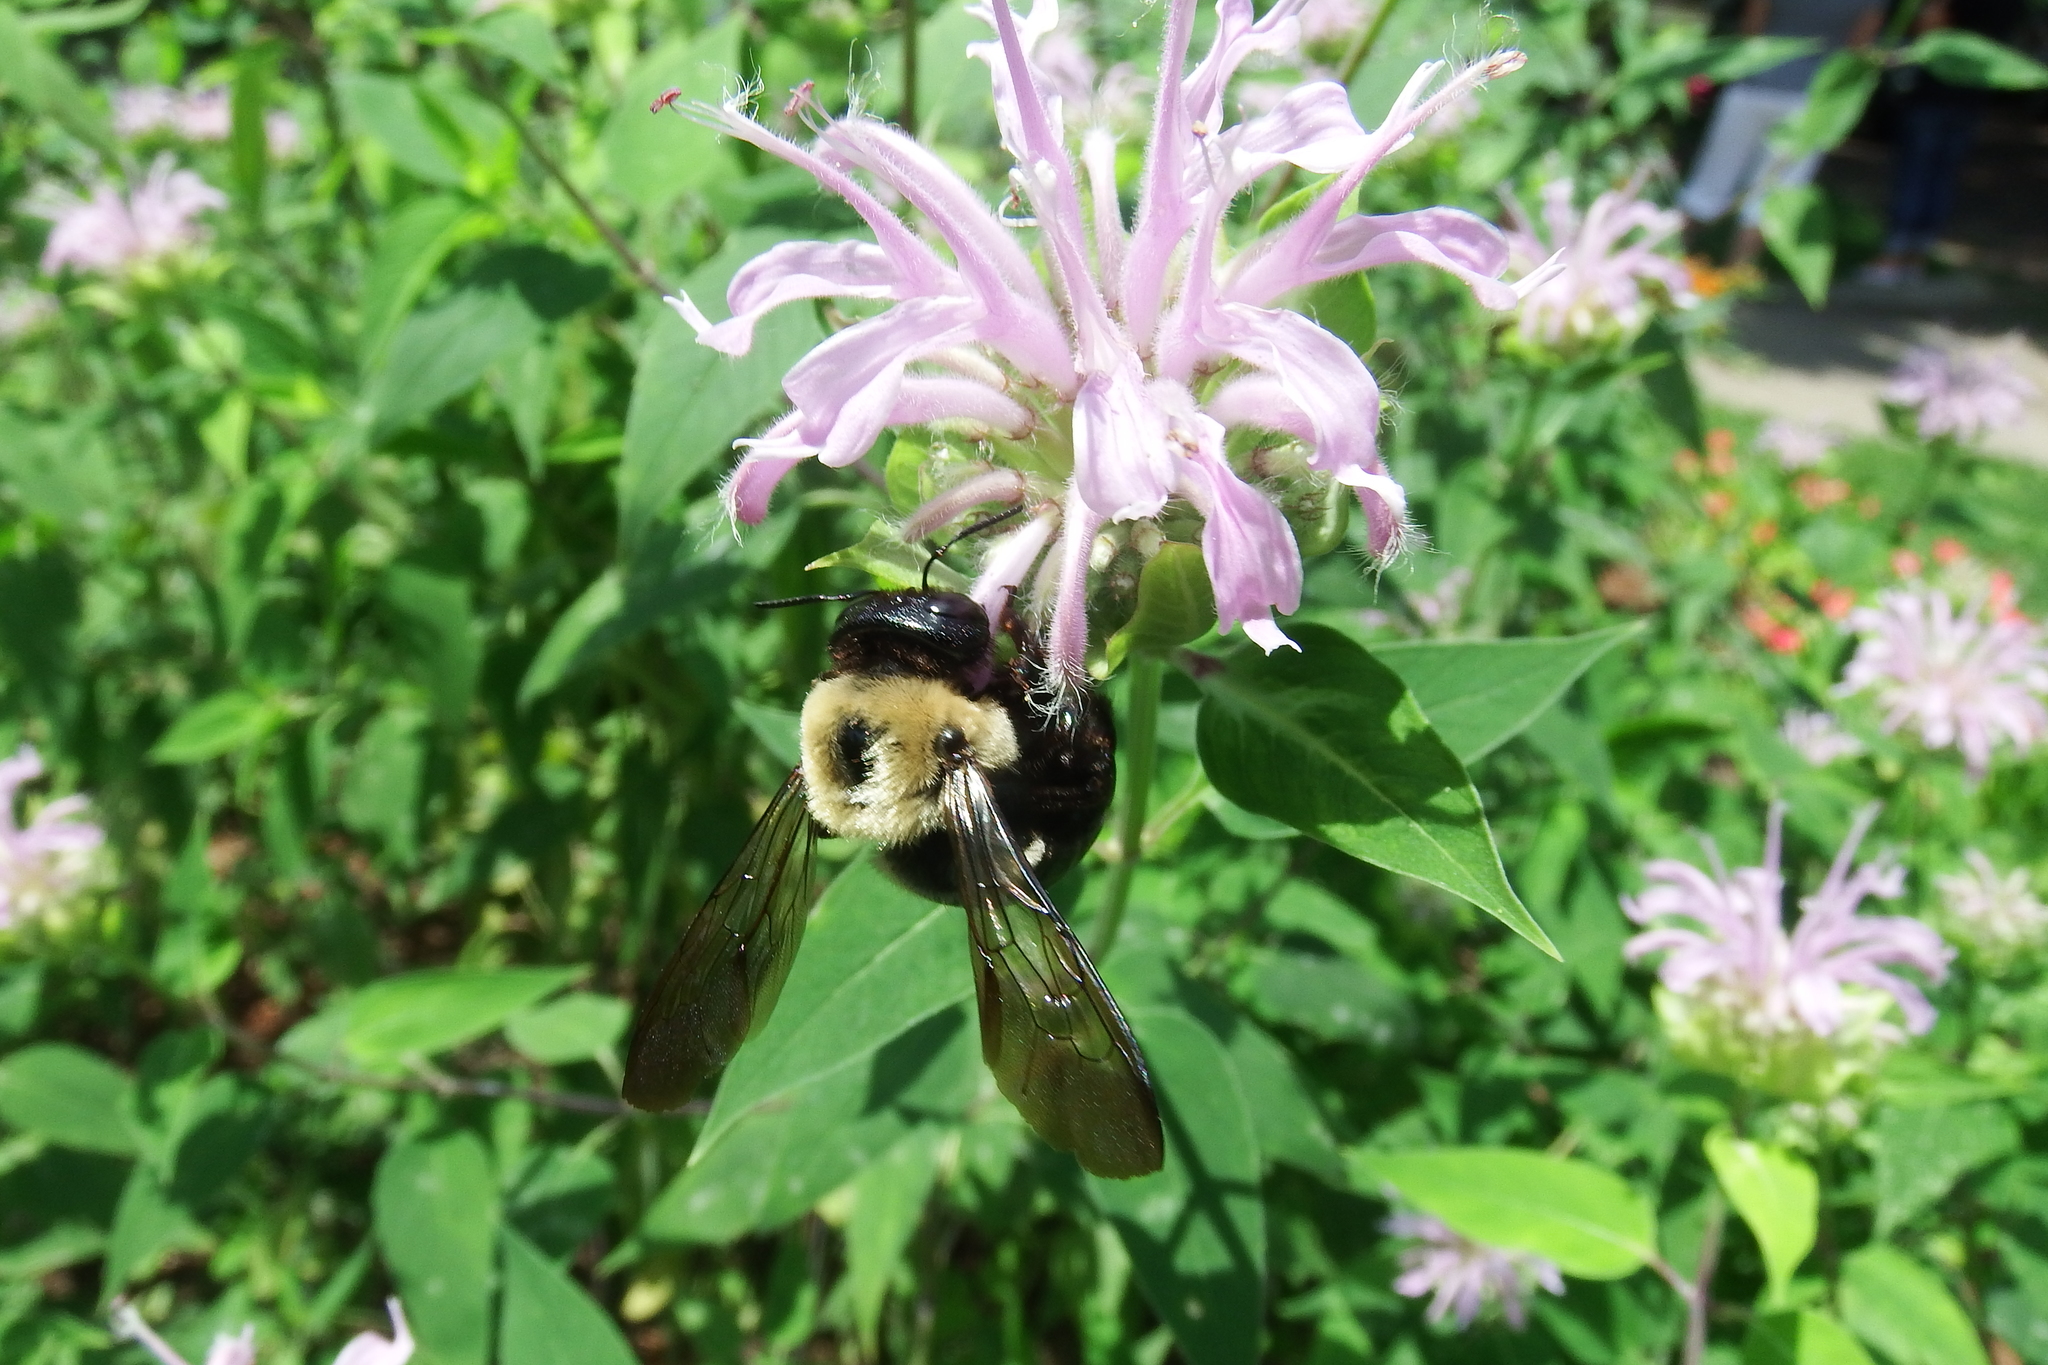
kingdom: Animalia
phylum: Arthropoda
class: Insecta
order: Hymenoptera
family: Apidae
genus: Xylocopa
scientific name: Xylocopa virginica
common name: Carpenter bee
